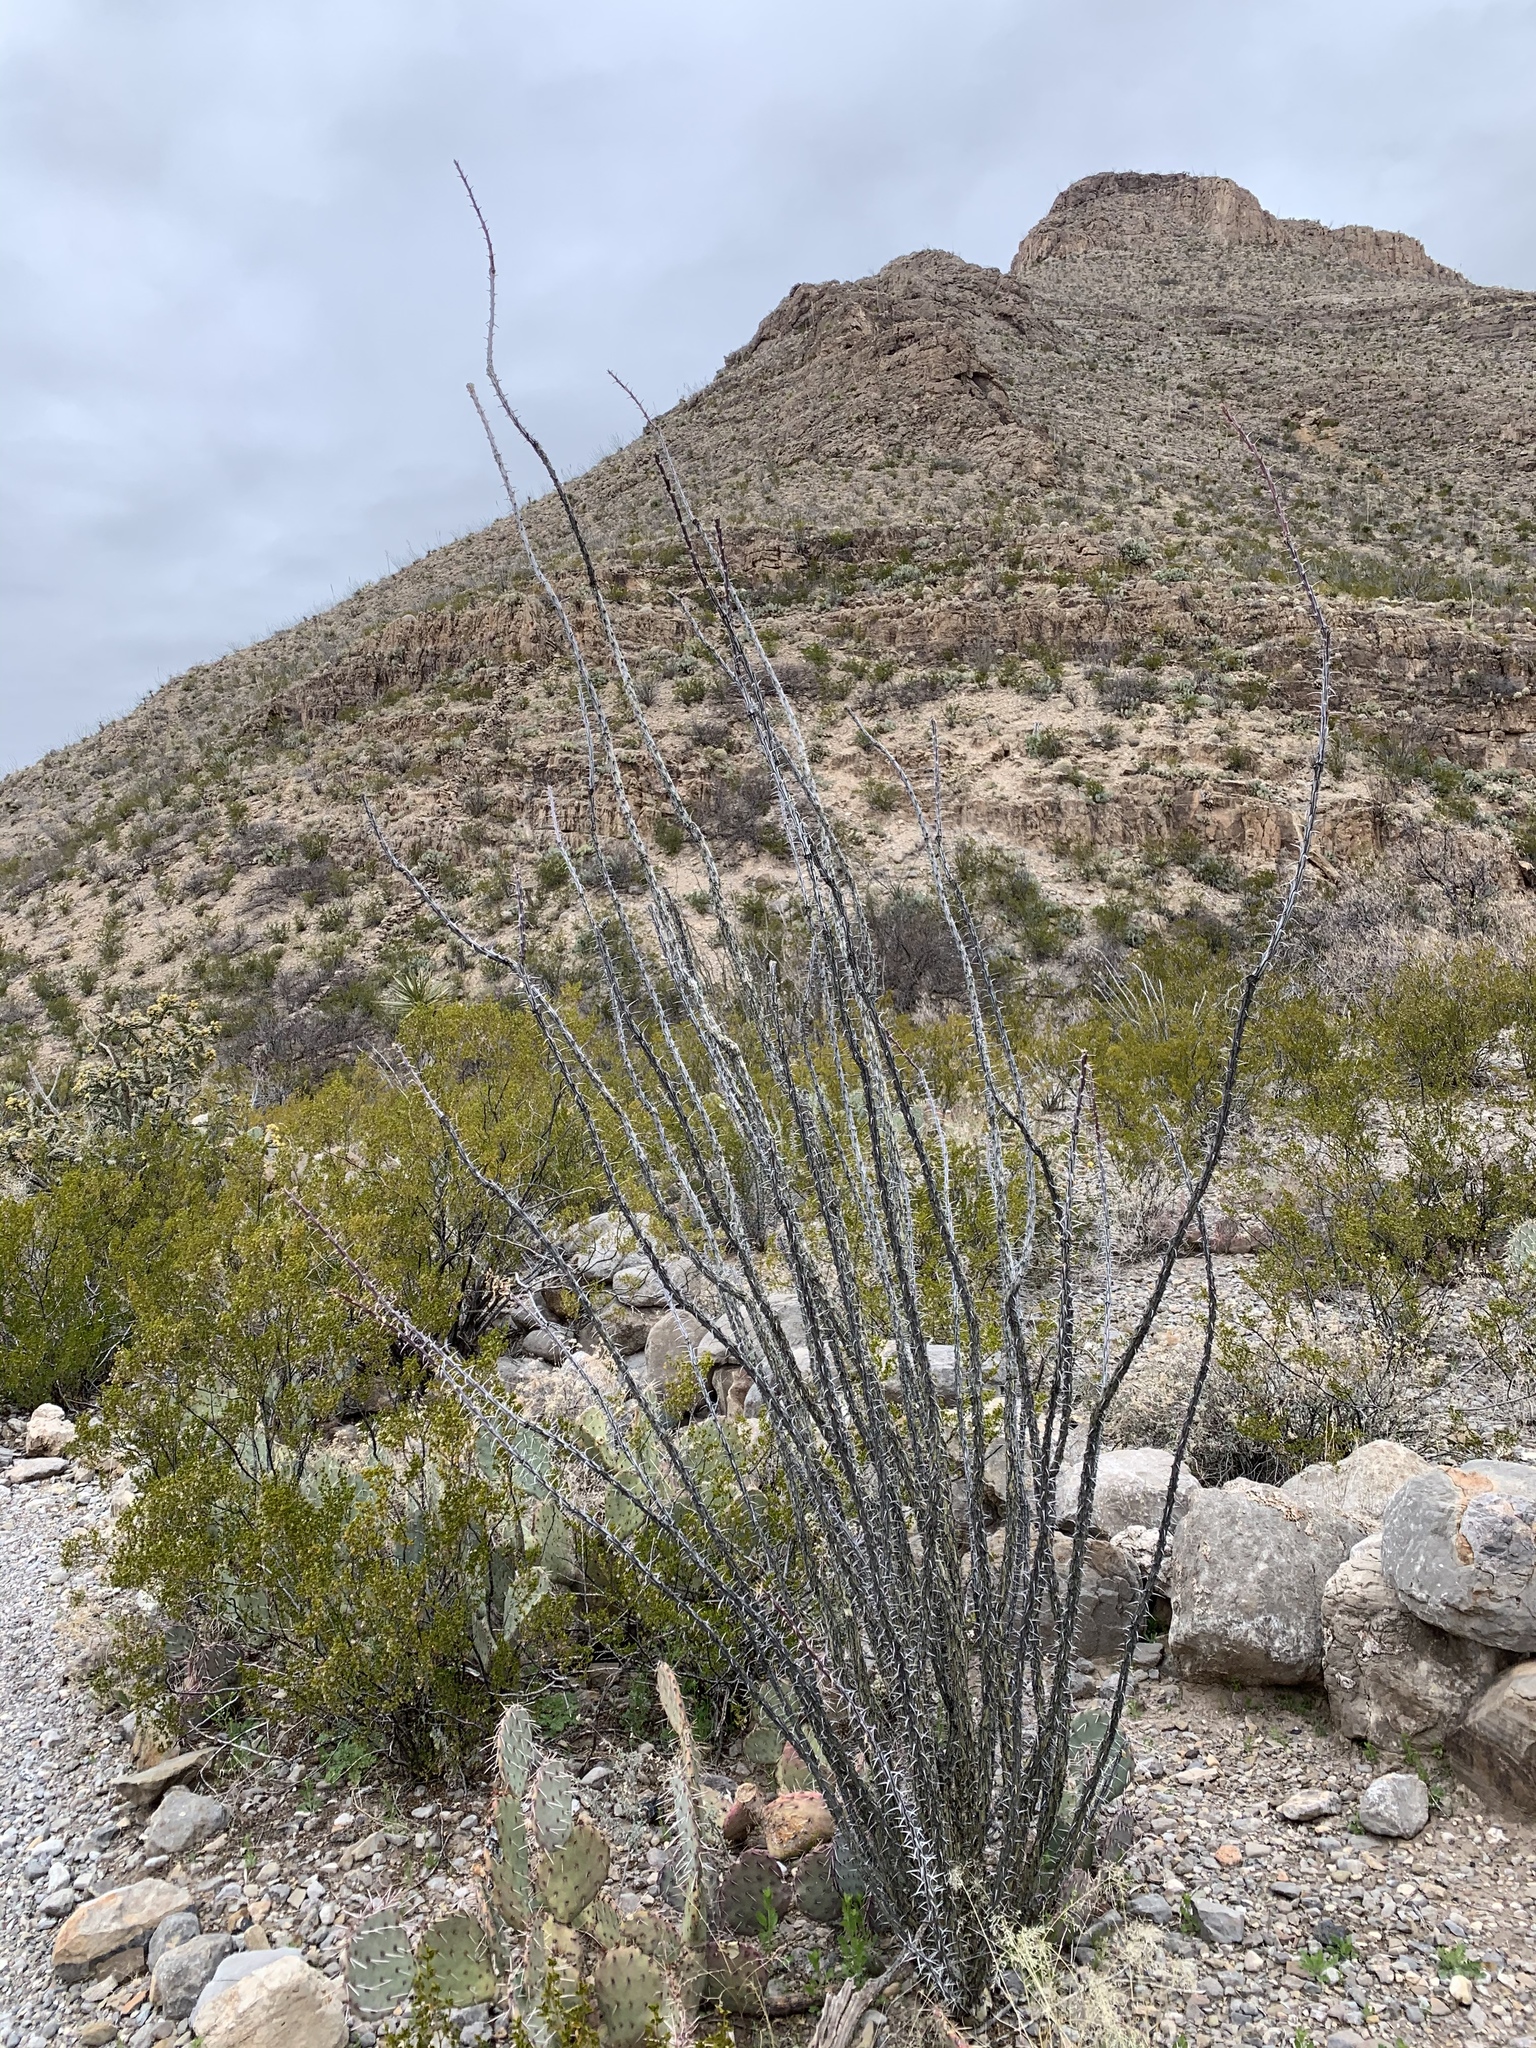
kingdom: Plantae
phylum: Tracheophyta
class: Magnoliopsida
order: Ericales
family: Fouquieriaceae
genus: Fouquieria
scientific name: Fouquieria splendens
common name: Vine-cactus
